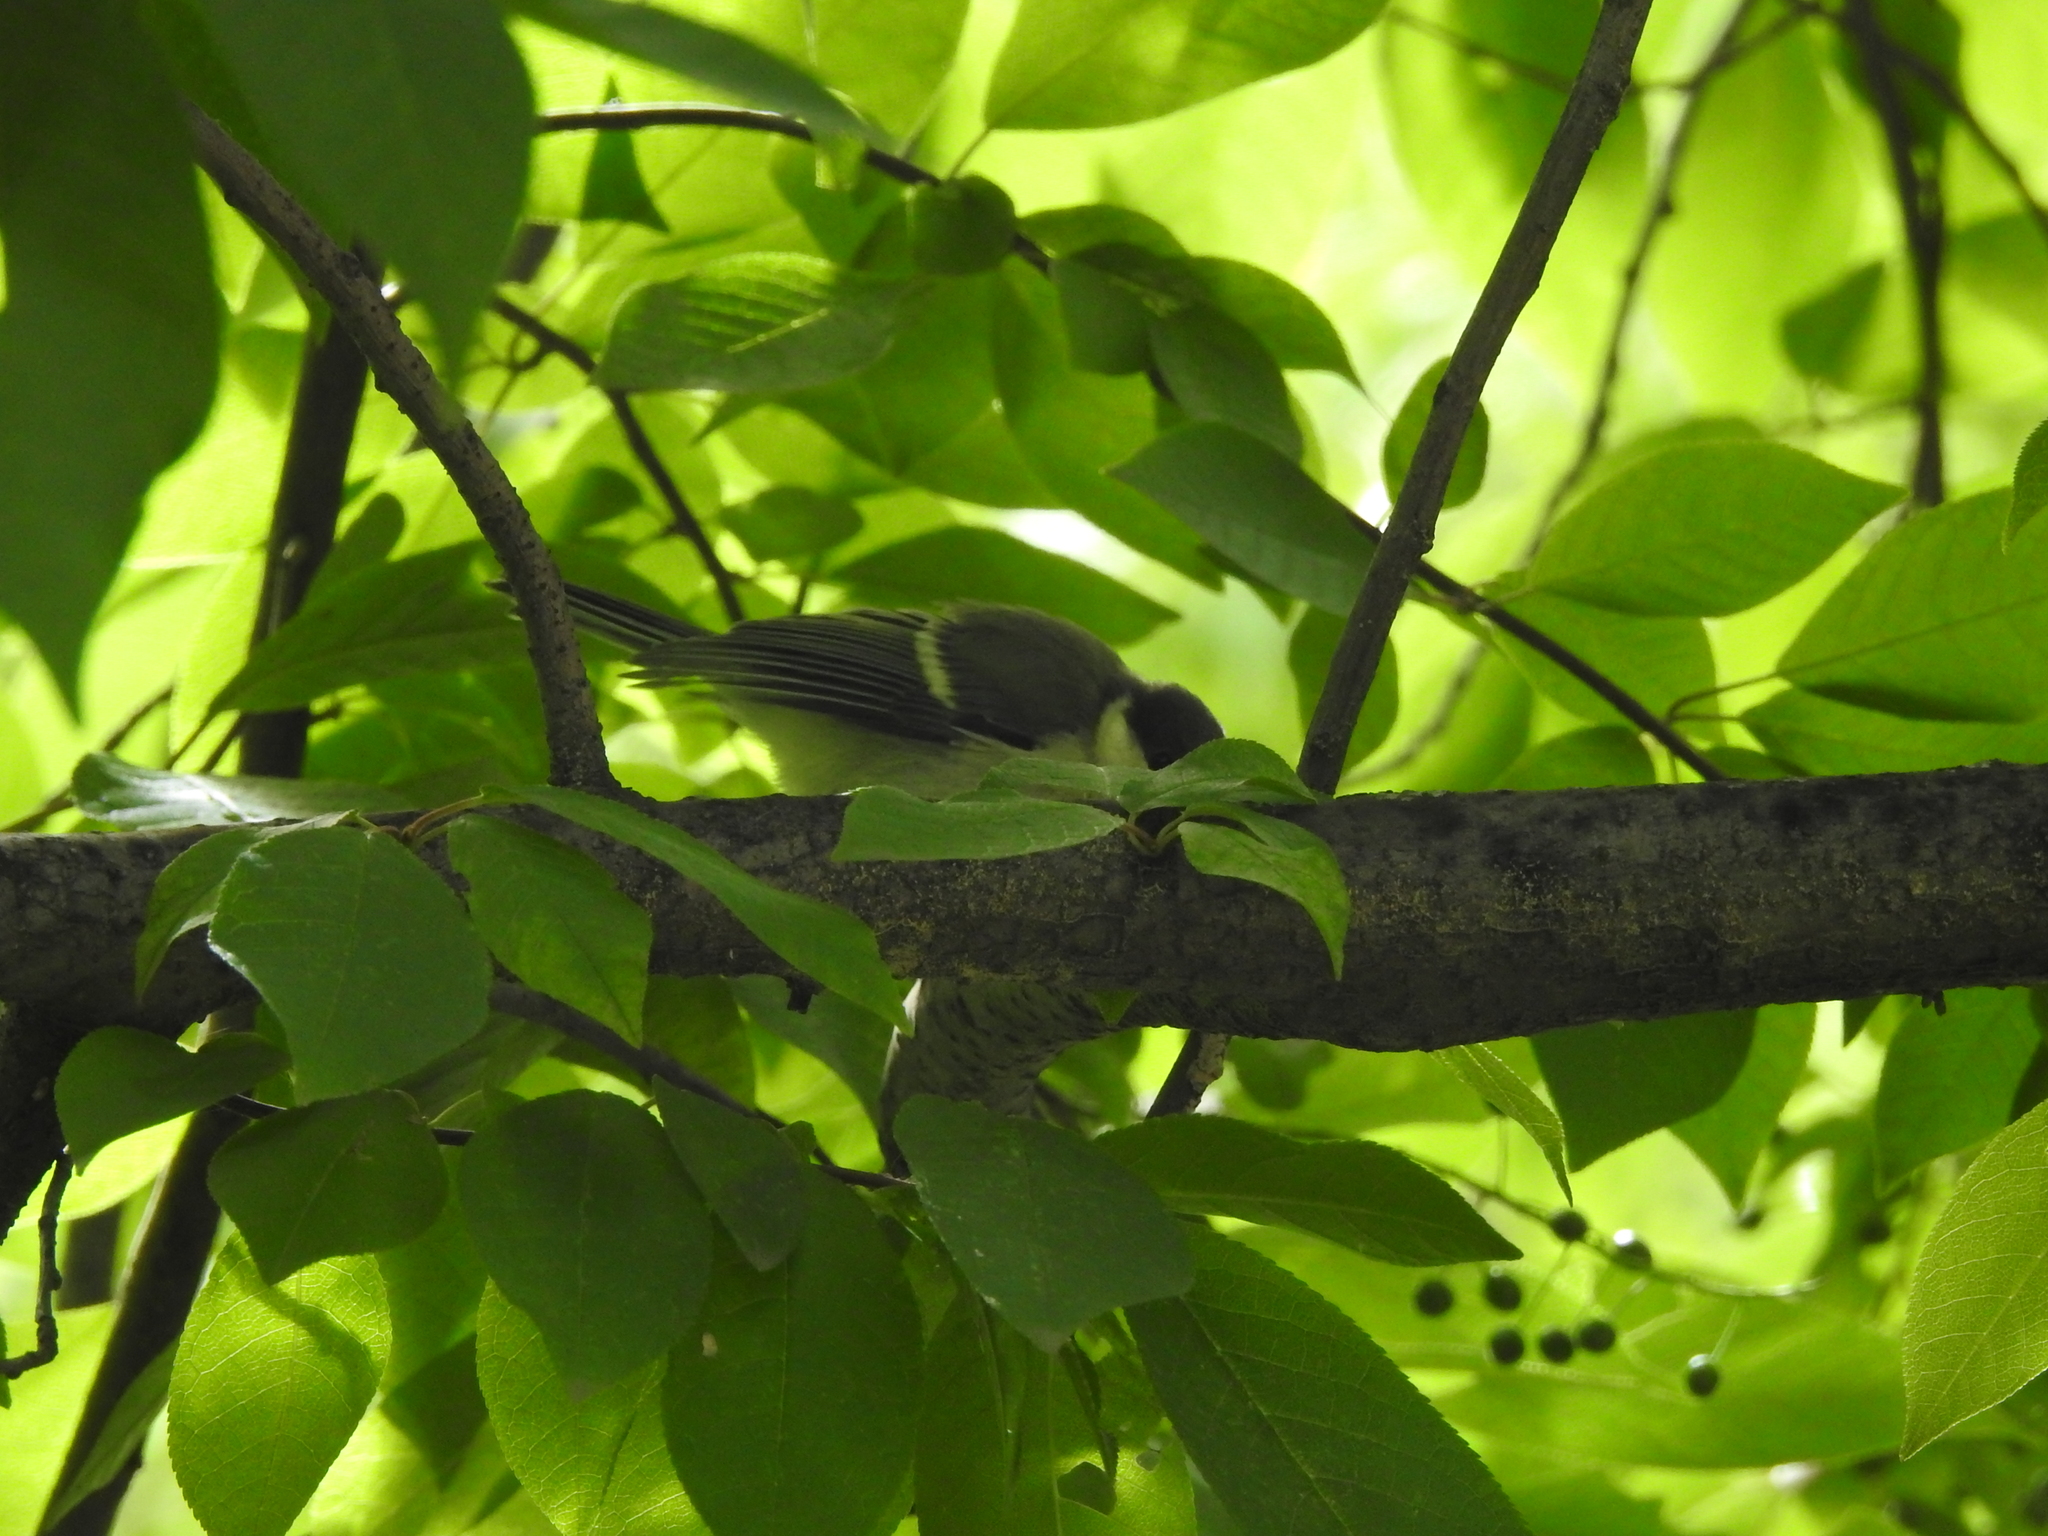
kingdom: Animalia
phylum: Chordata
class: Aves
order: Passeriformes
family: Paridae
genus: Parus
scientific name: Parus major
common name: Great tit
